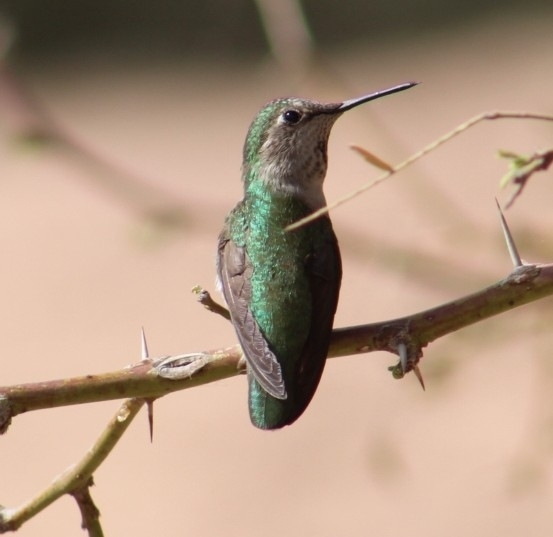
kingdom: Animalia
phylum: Chordata
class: Aves
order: Apodiformes
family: Trochilidae
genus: Calypte
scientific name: Calypte costae
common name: Costa's hummingbird
